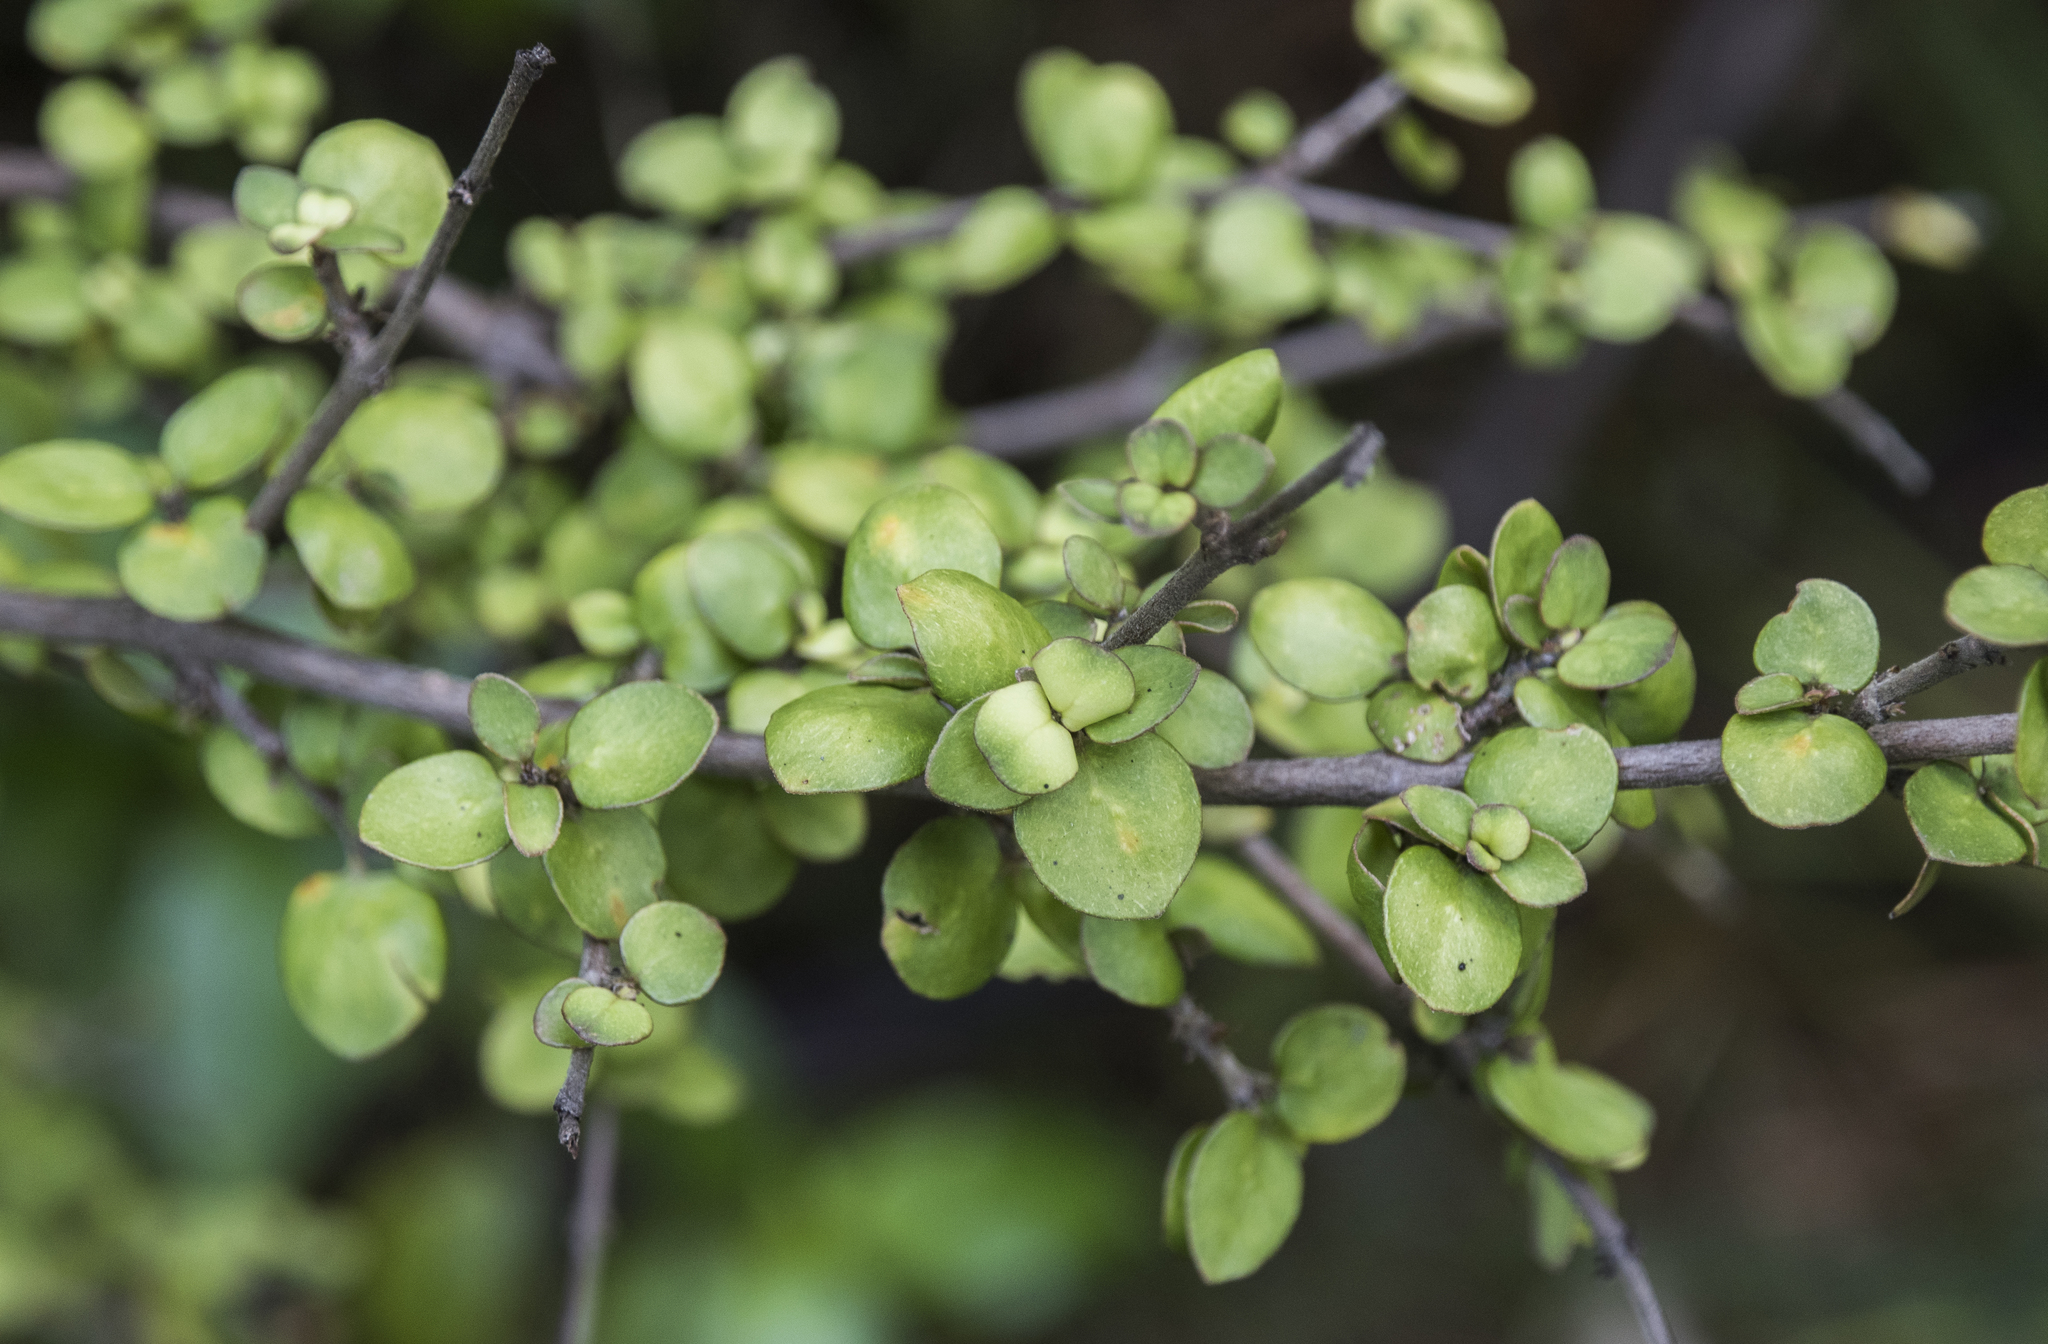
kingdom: Plantae
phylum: Tracheophyta
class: Magnoliopsida
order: Gentianales
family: Rubiaceae
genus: Coprosma
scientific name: Coprosma rhamnoides
